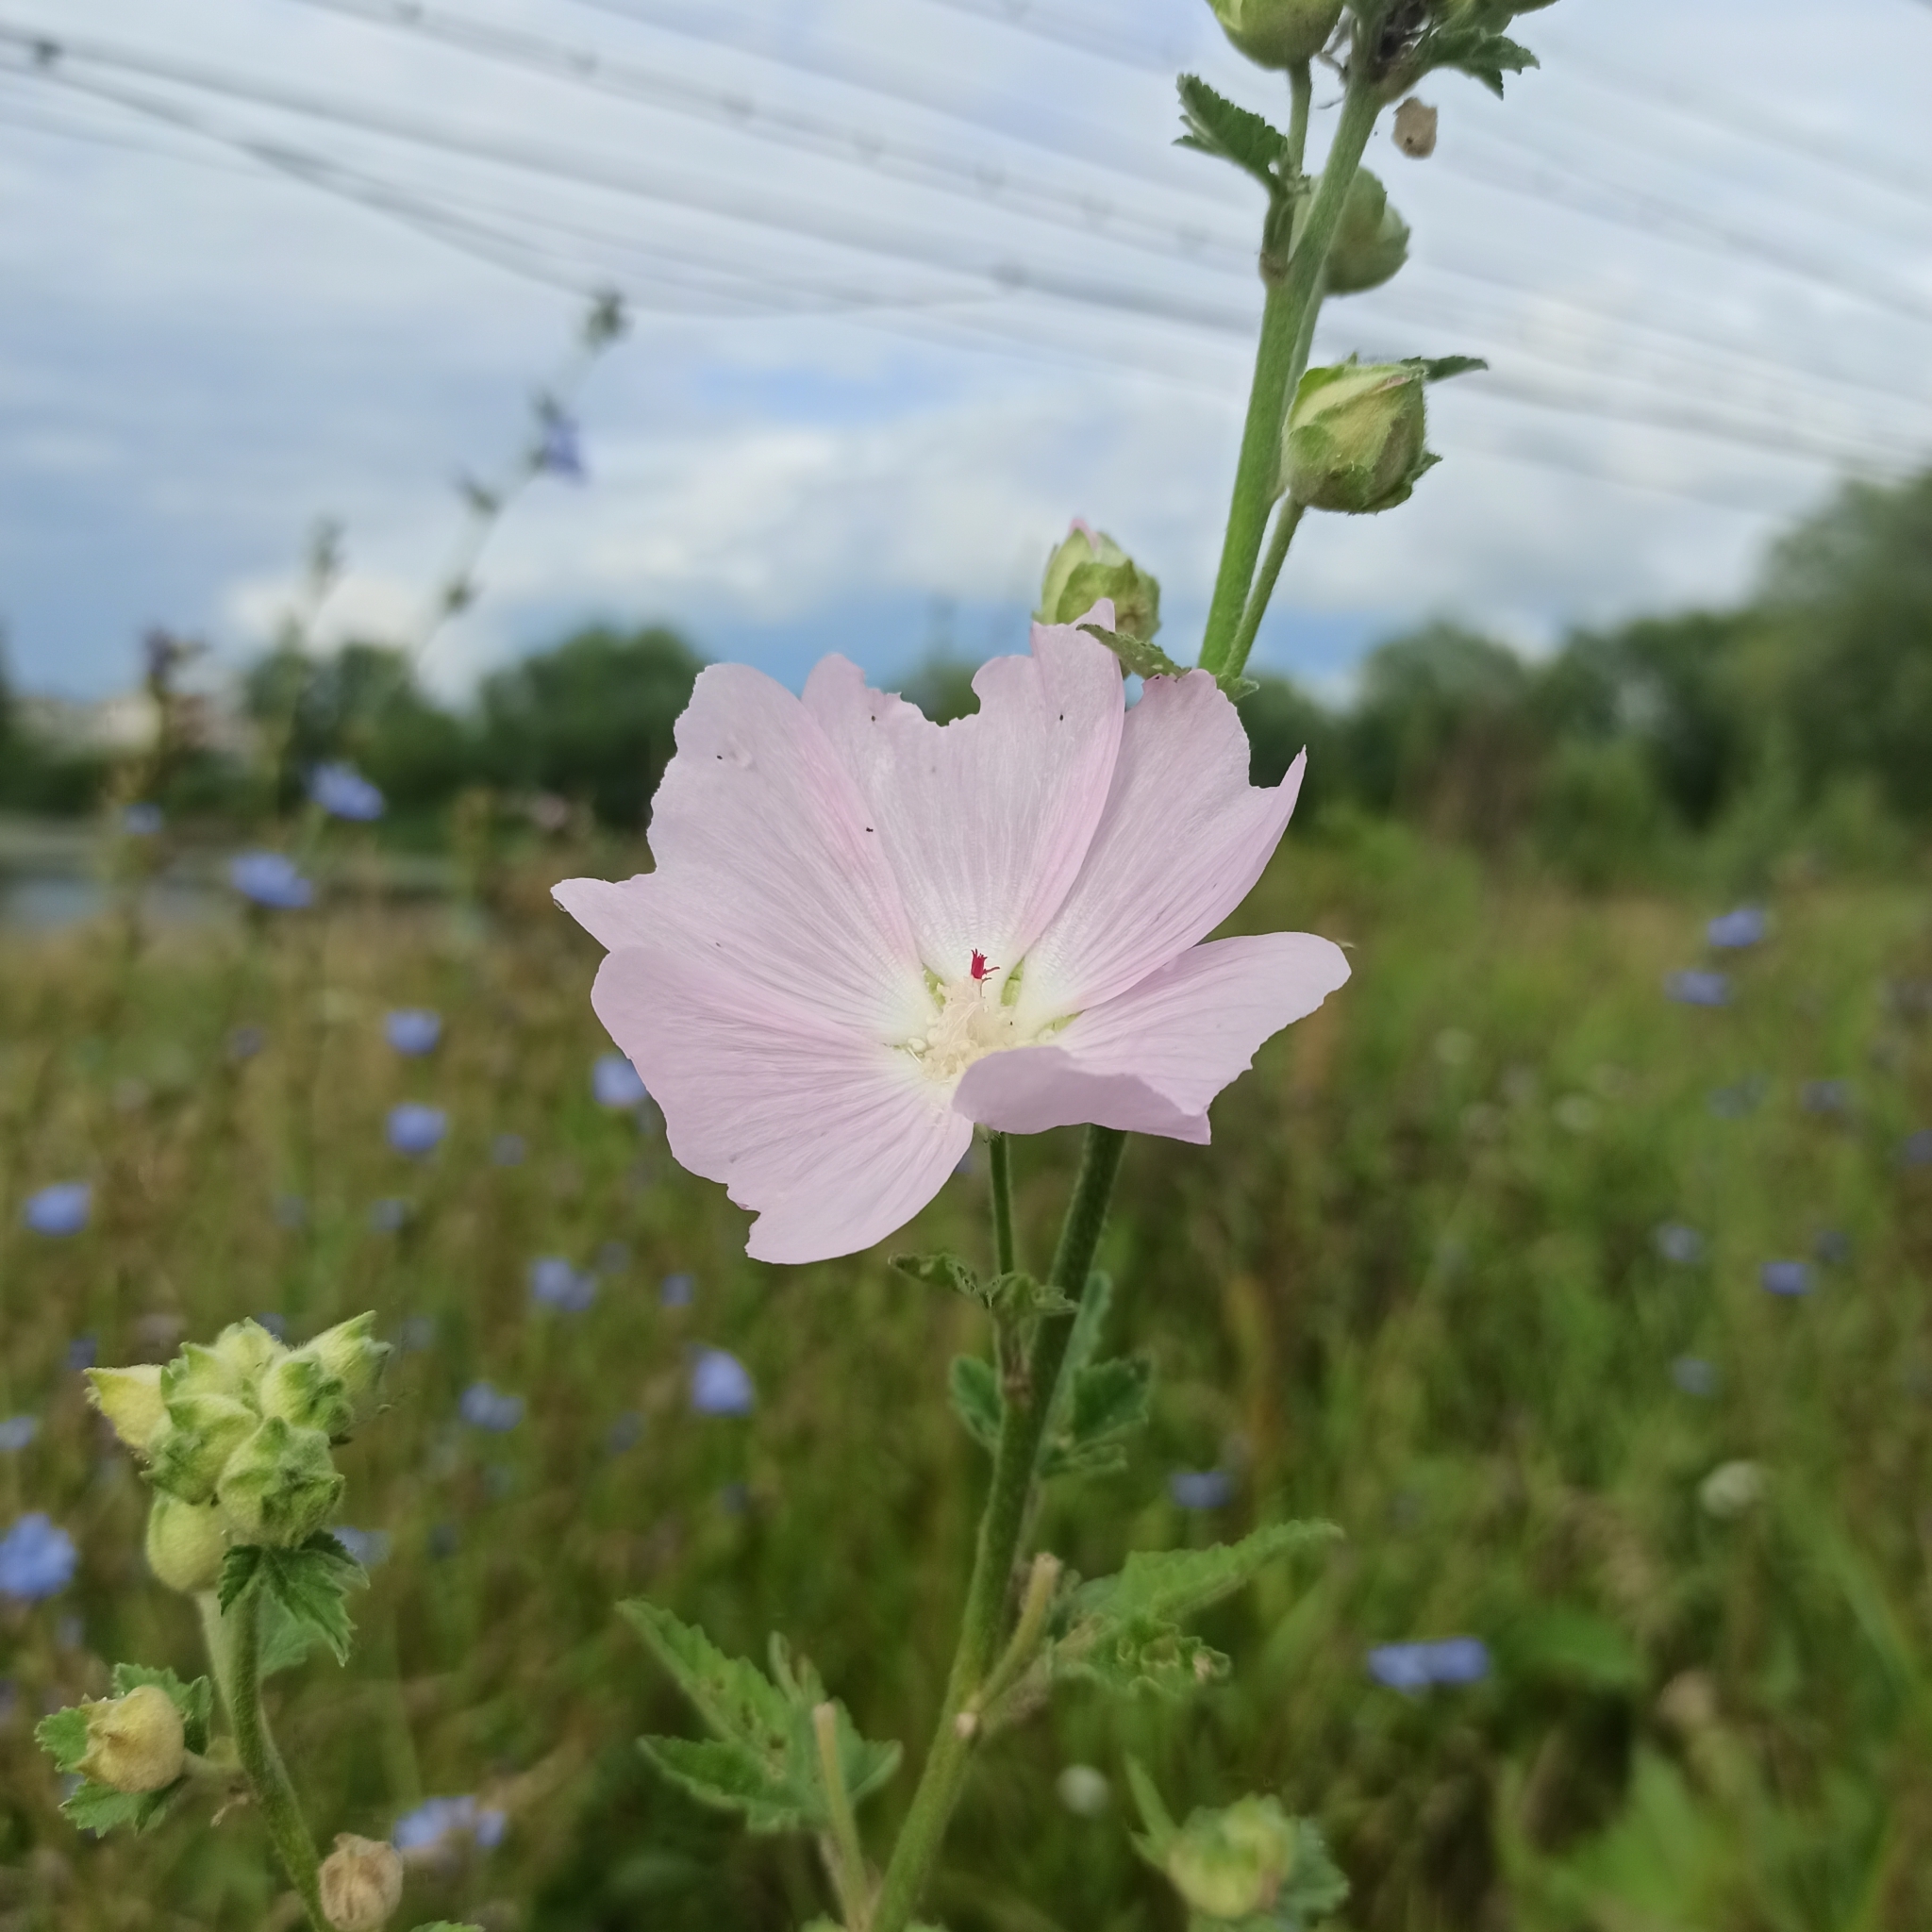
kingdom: Plantae
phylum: Tracheophyta
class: Magnoliopsida
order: Malvales
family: Malvaceae
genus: Malva
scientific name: Malva thuringiaca
